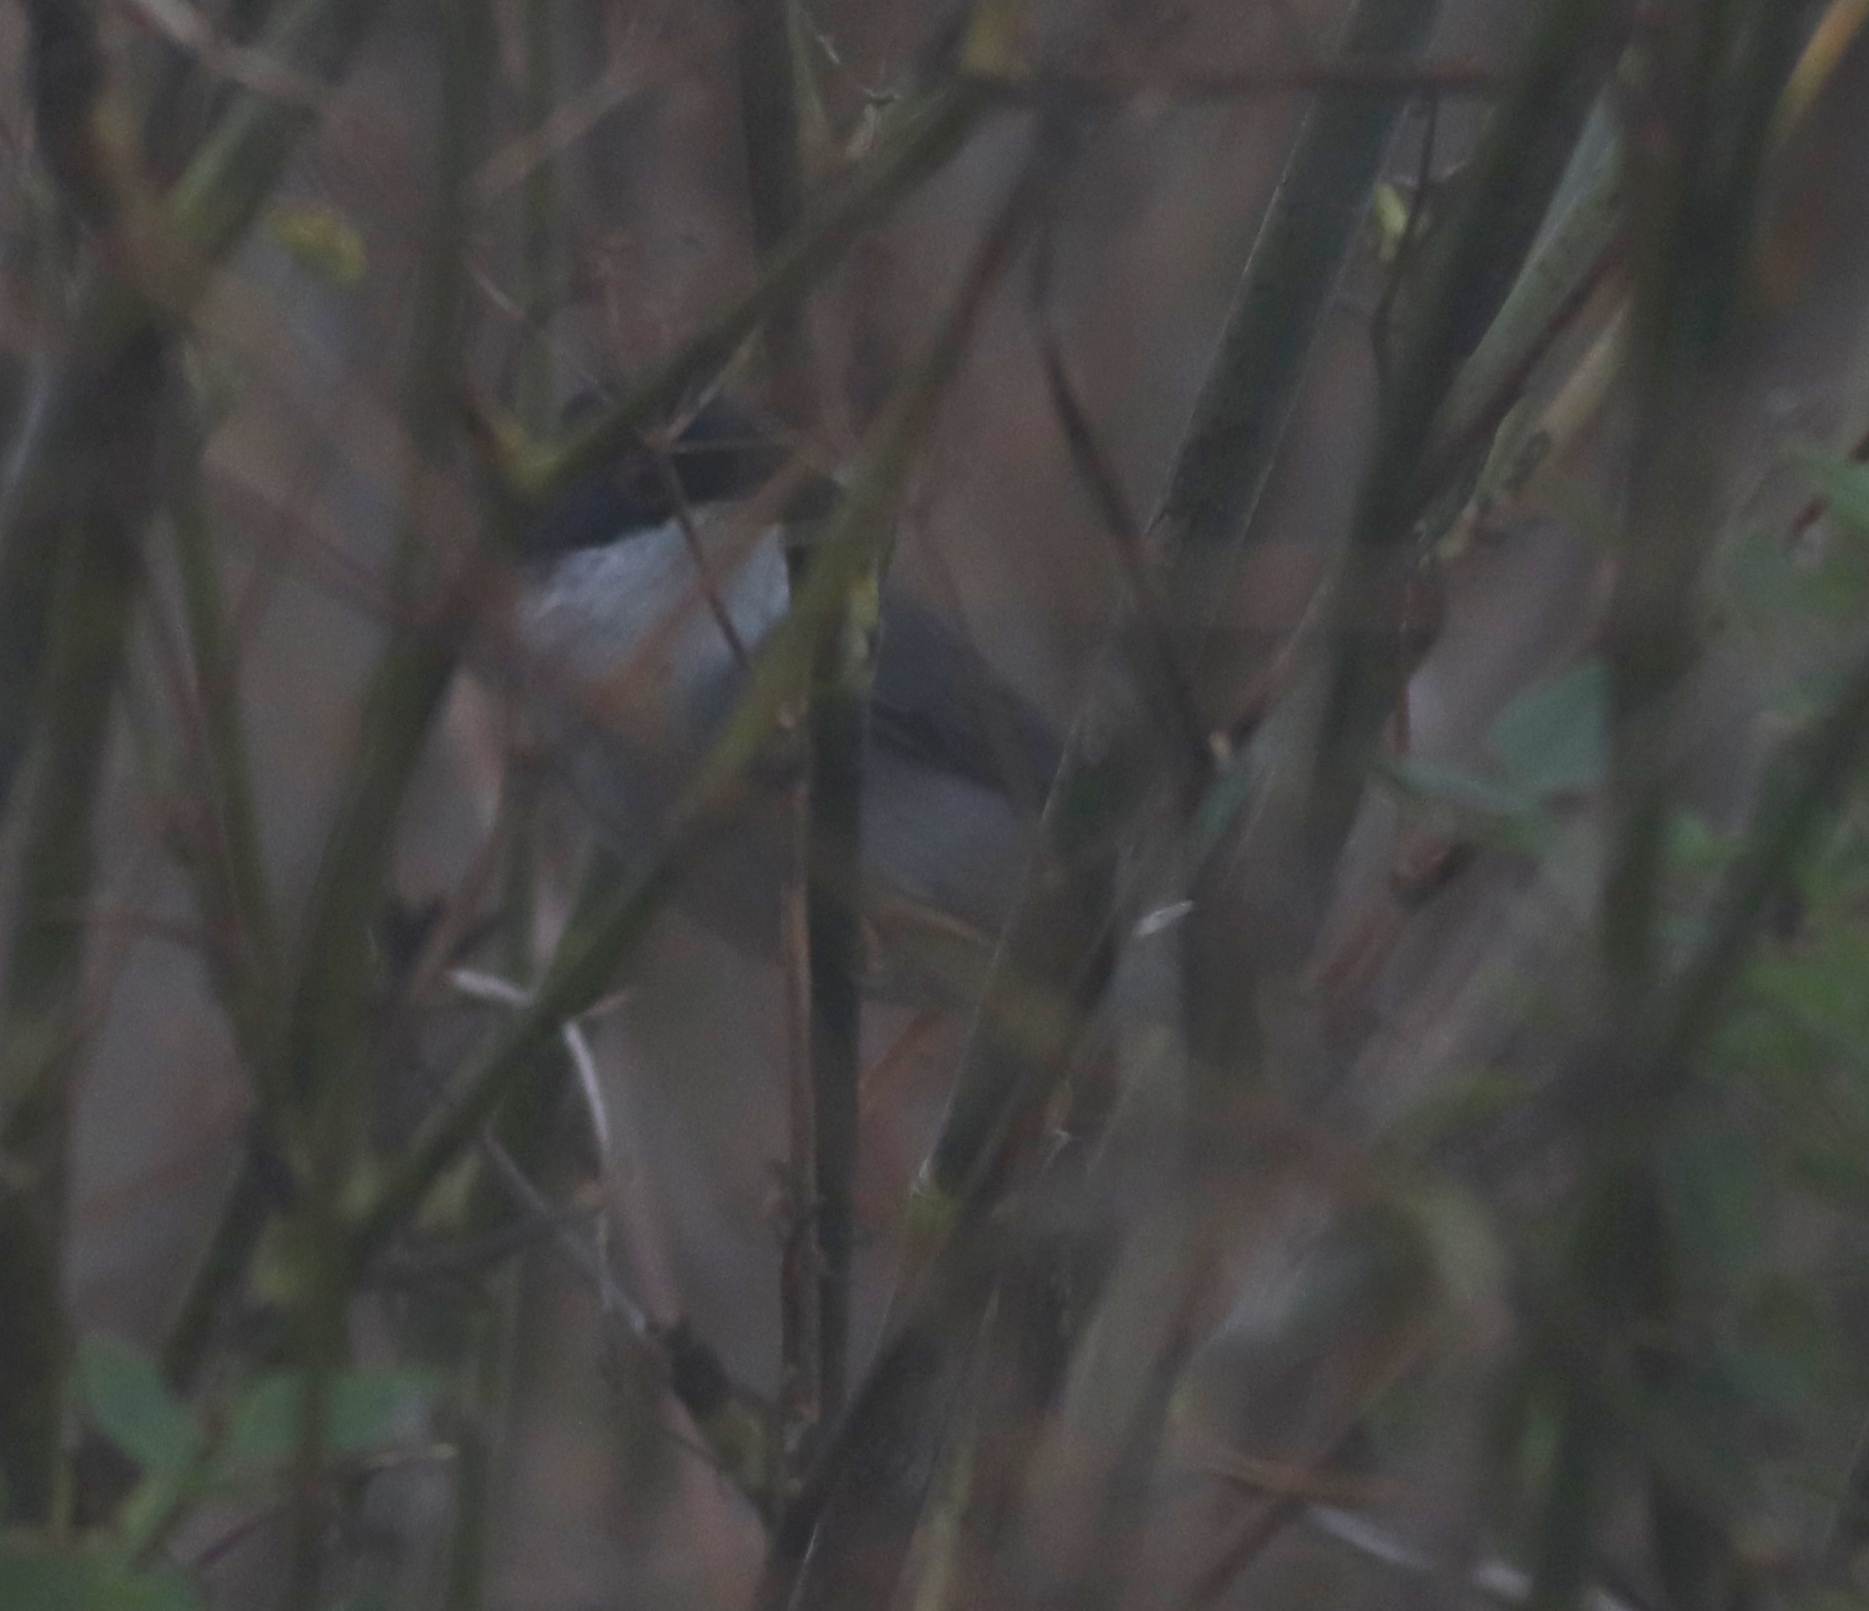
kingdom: Animalia
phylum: Chordata
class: Aves
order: Passeriformes
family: Sylviidae
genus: Curruca
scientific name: Curruca melanocephala
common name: Sardinian warbler
